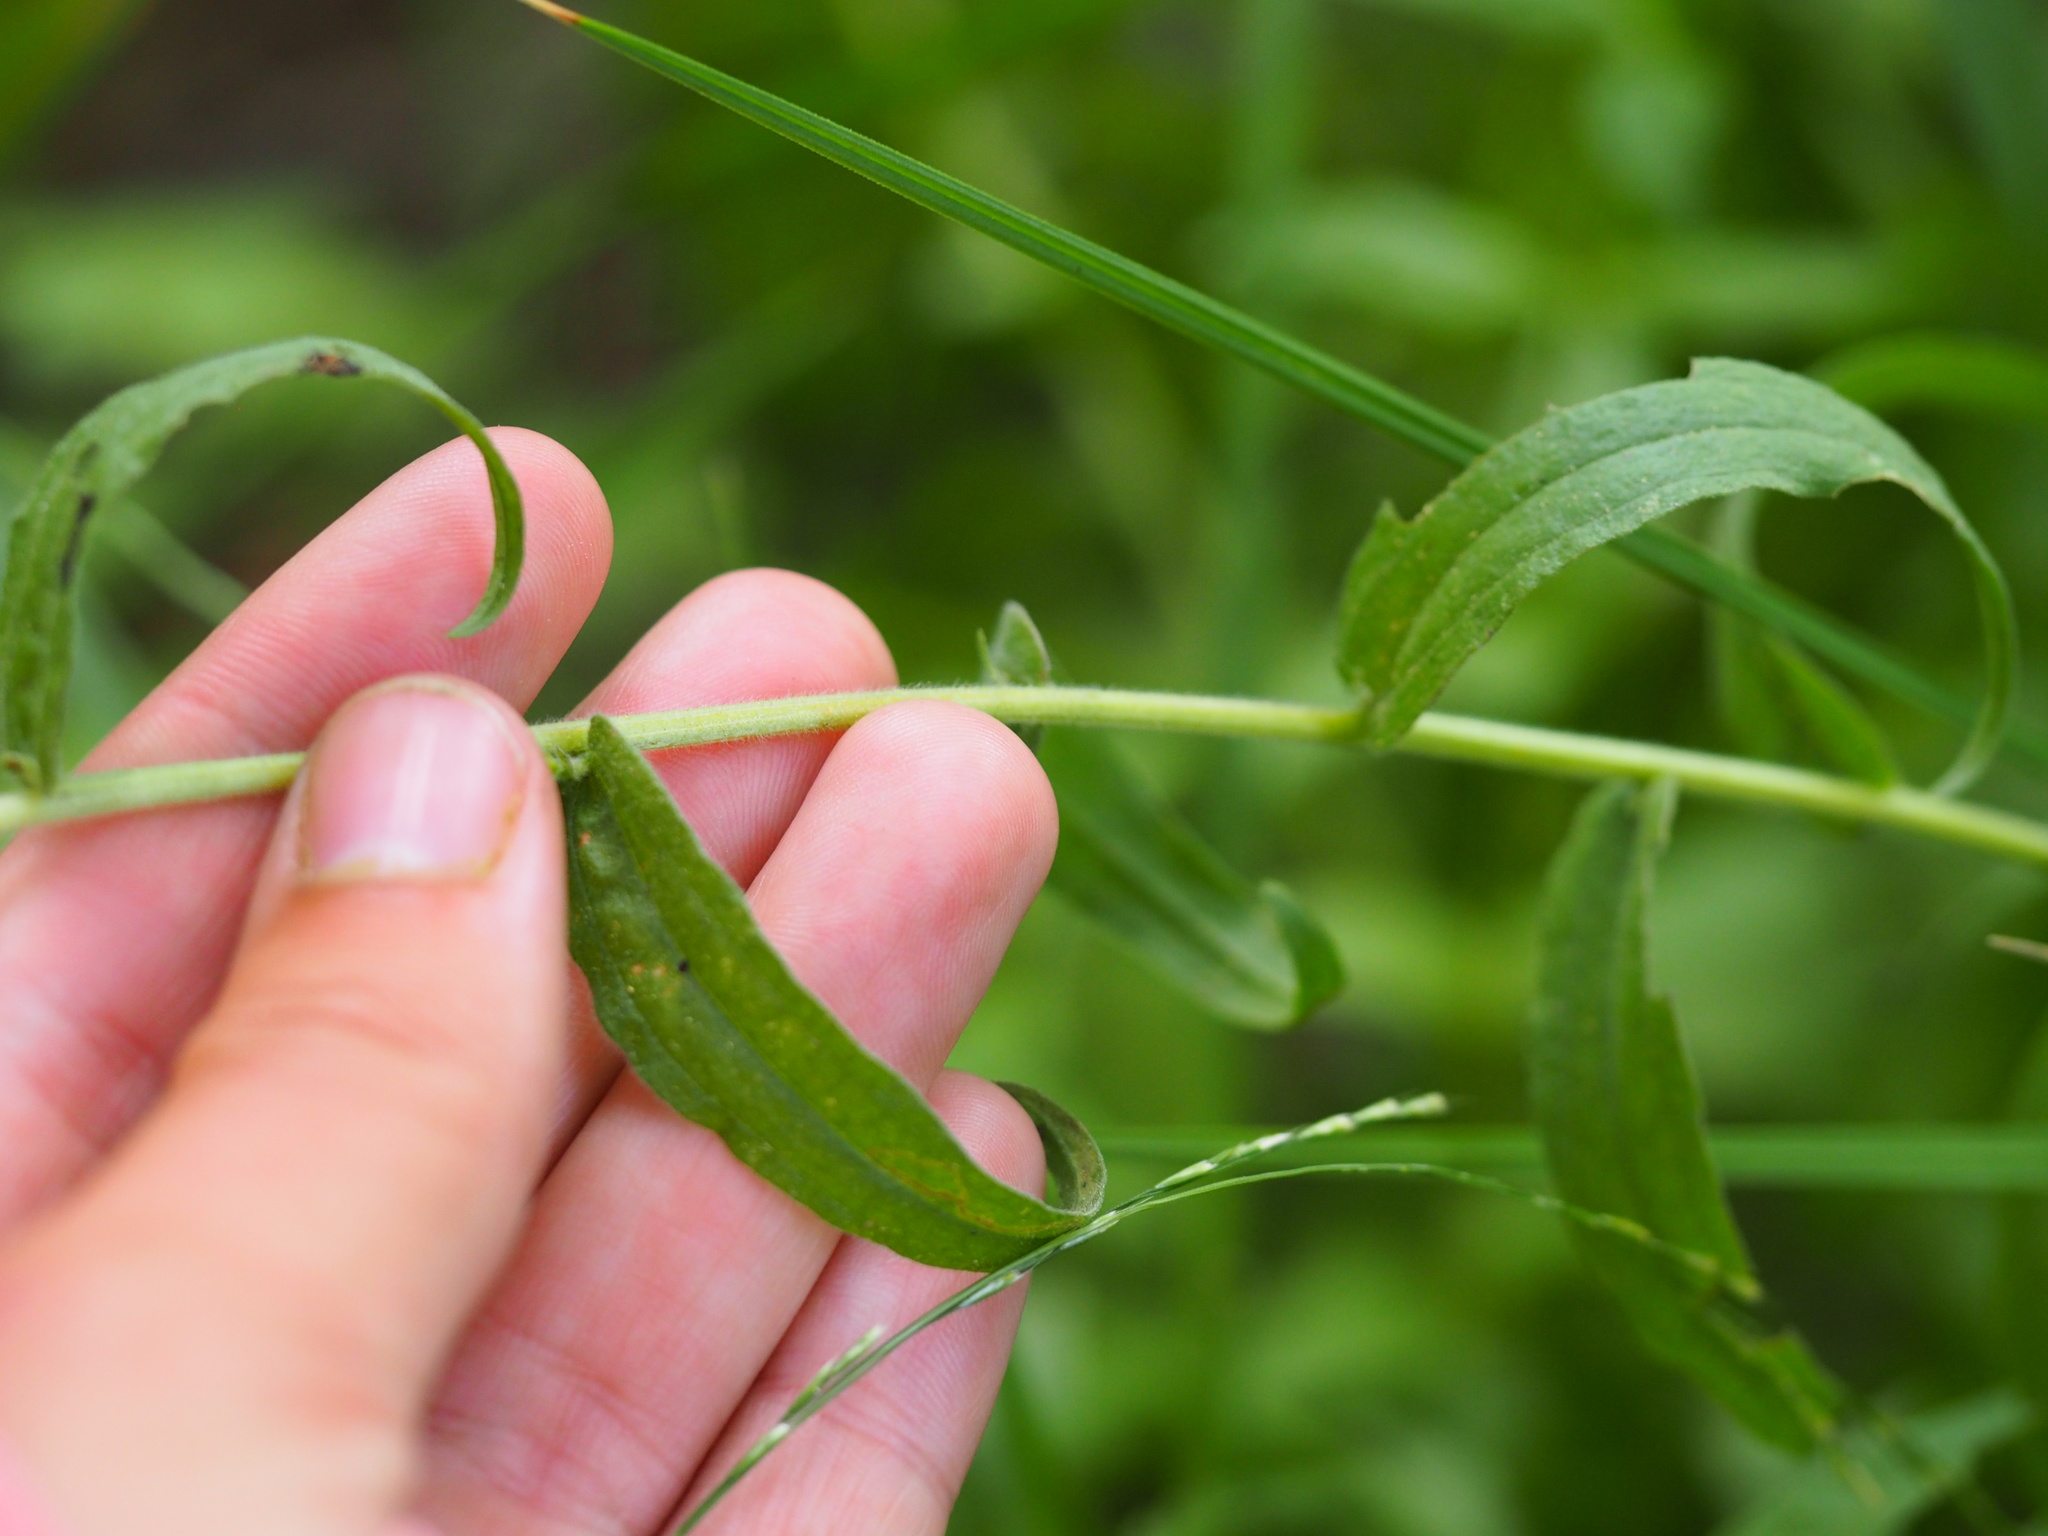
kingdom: Plantae
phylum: Tracheophyta
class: Magnoliopsida
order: Lamiales
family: Orobanchaceae
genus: Castilleja
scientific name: Castilleja miniata
